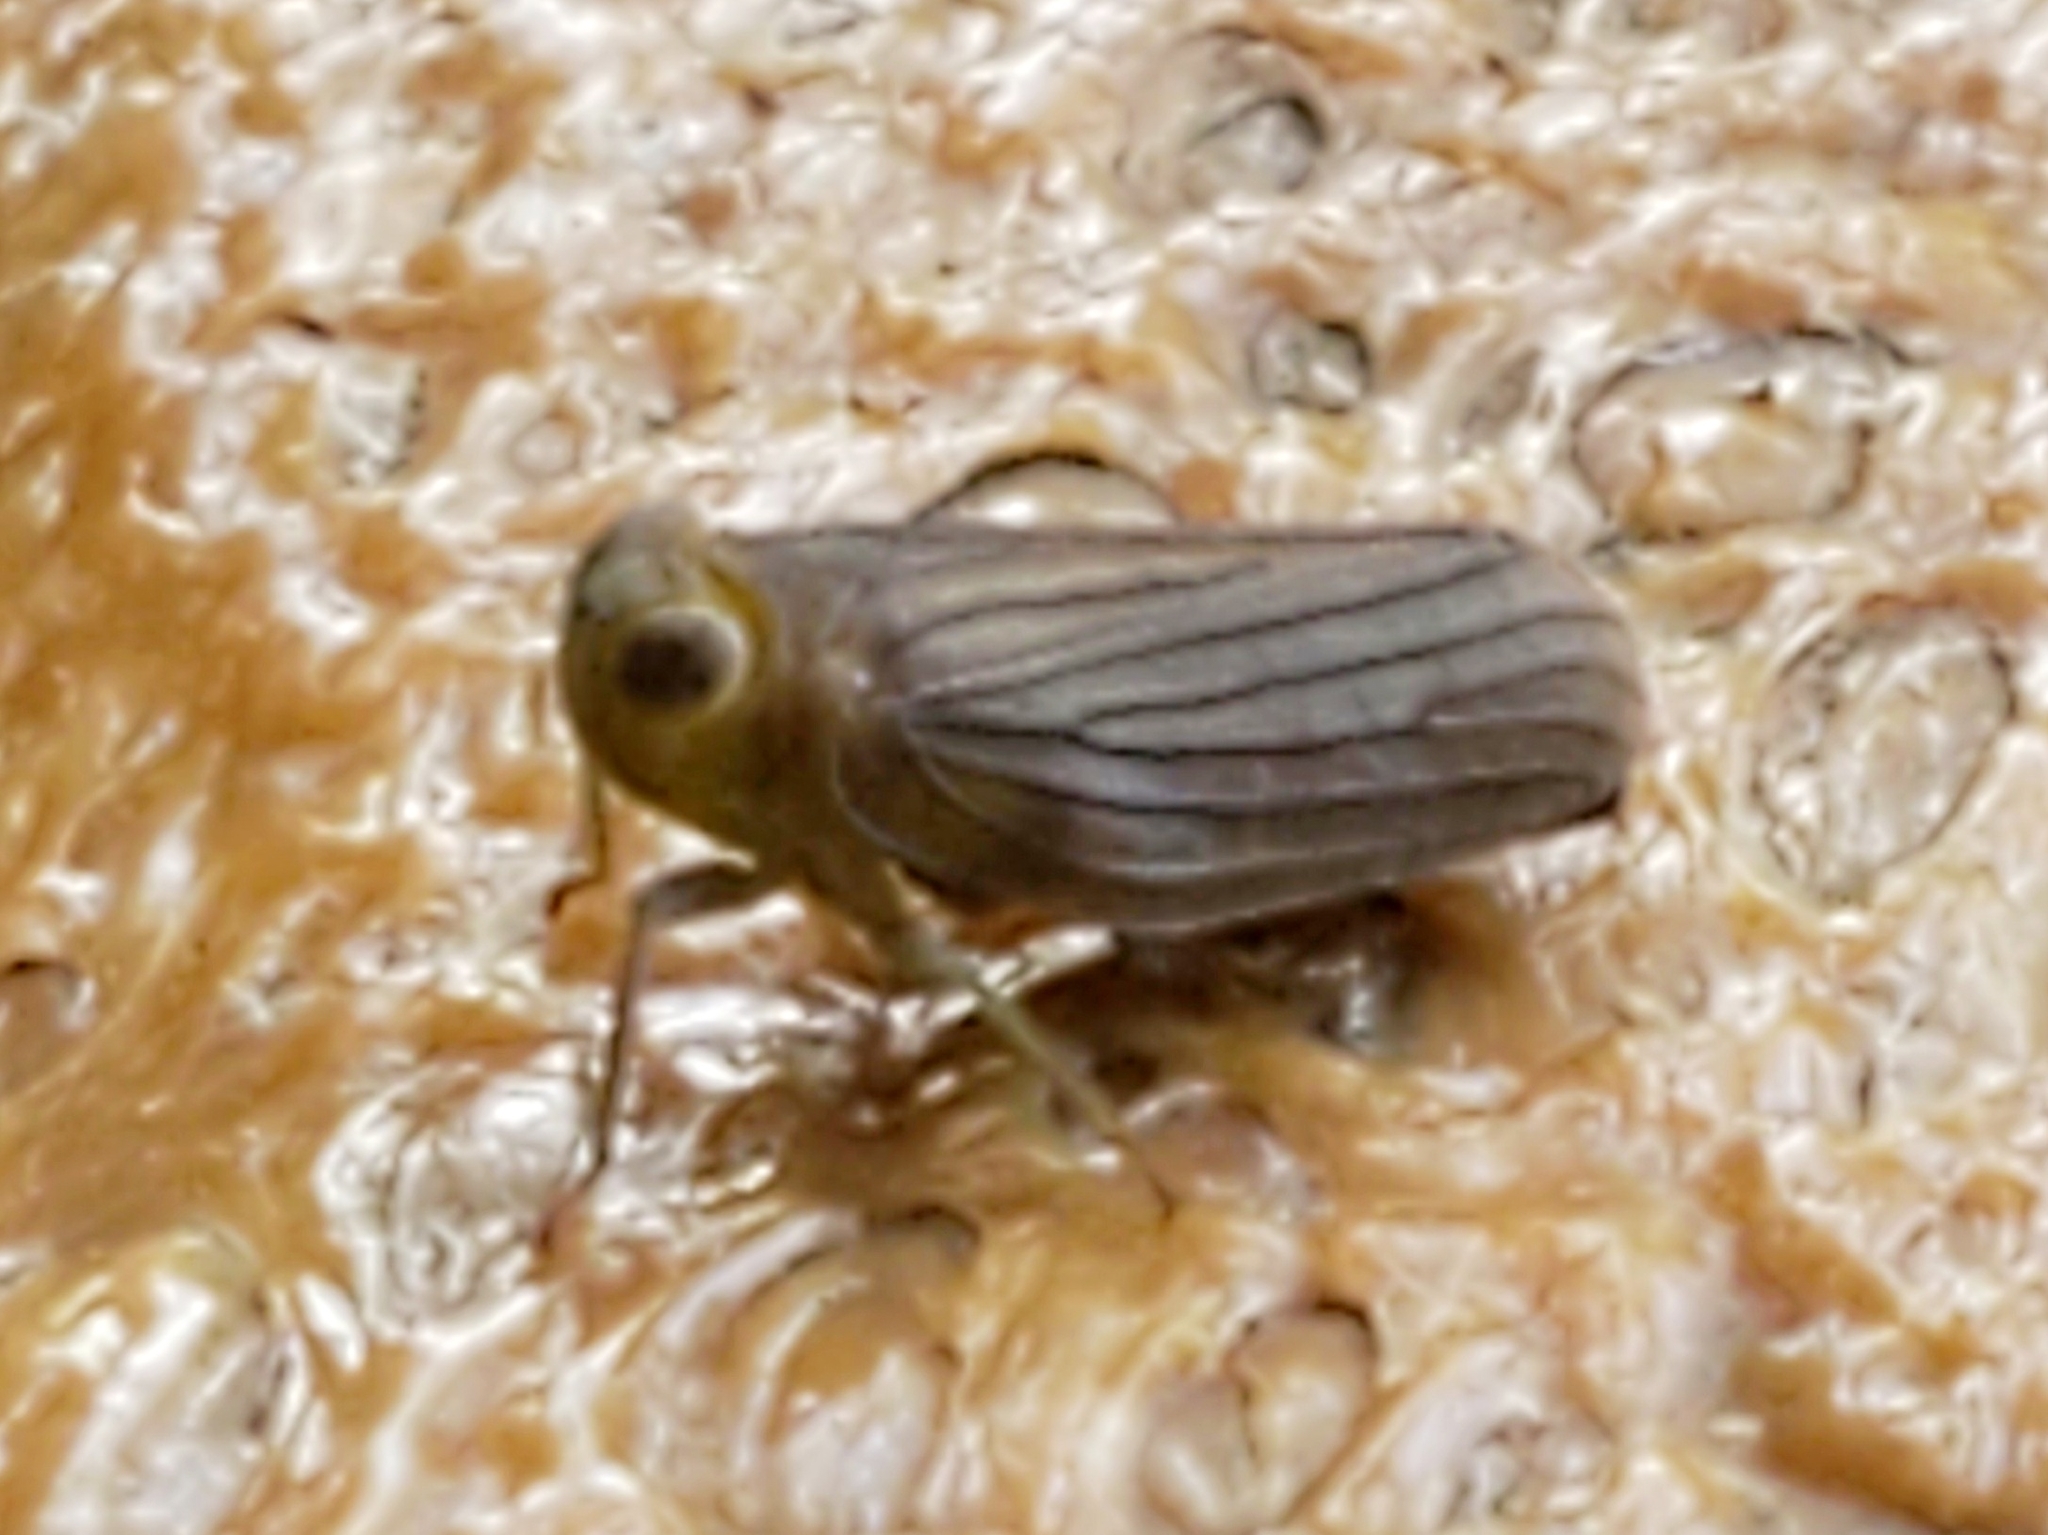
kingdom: Animalia
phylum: Arthropoda
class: Insecta
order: Hemiptera
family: Issidae
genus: Aplos
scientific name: Aplos simplex
